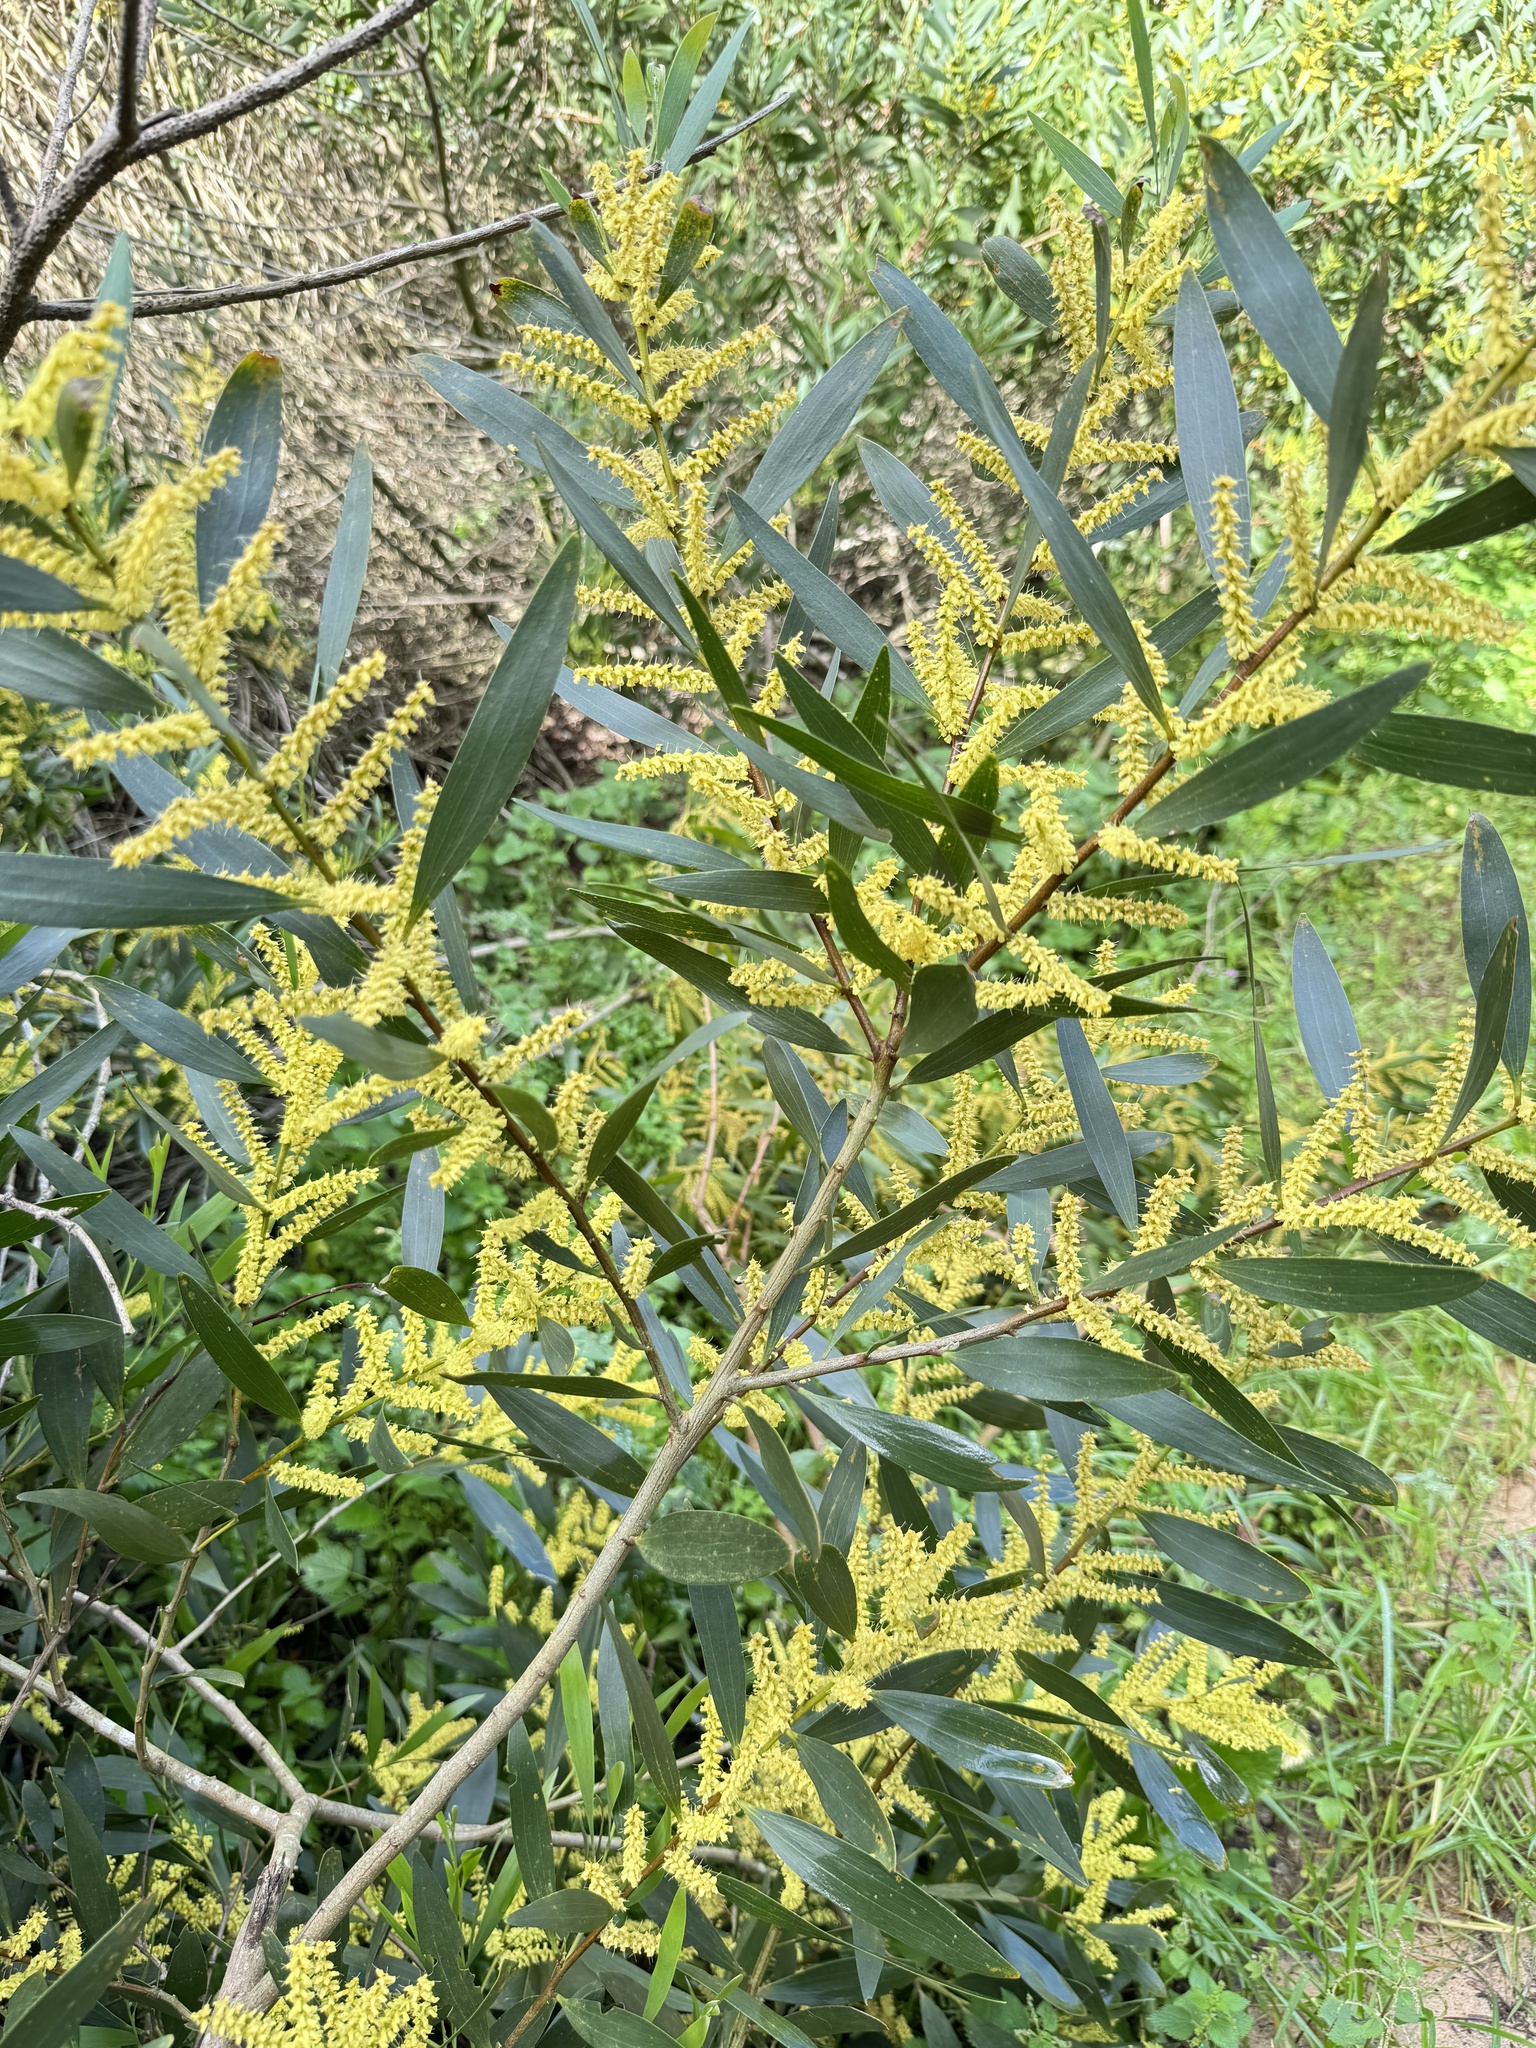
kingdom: Plantae
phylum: Tracheophyta
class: Magnoliopsida
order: Fabales
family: Fabaceae
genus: Acacia
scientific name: Acacia longifolia
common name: Sydney golden wattle
